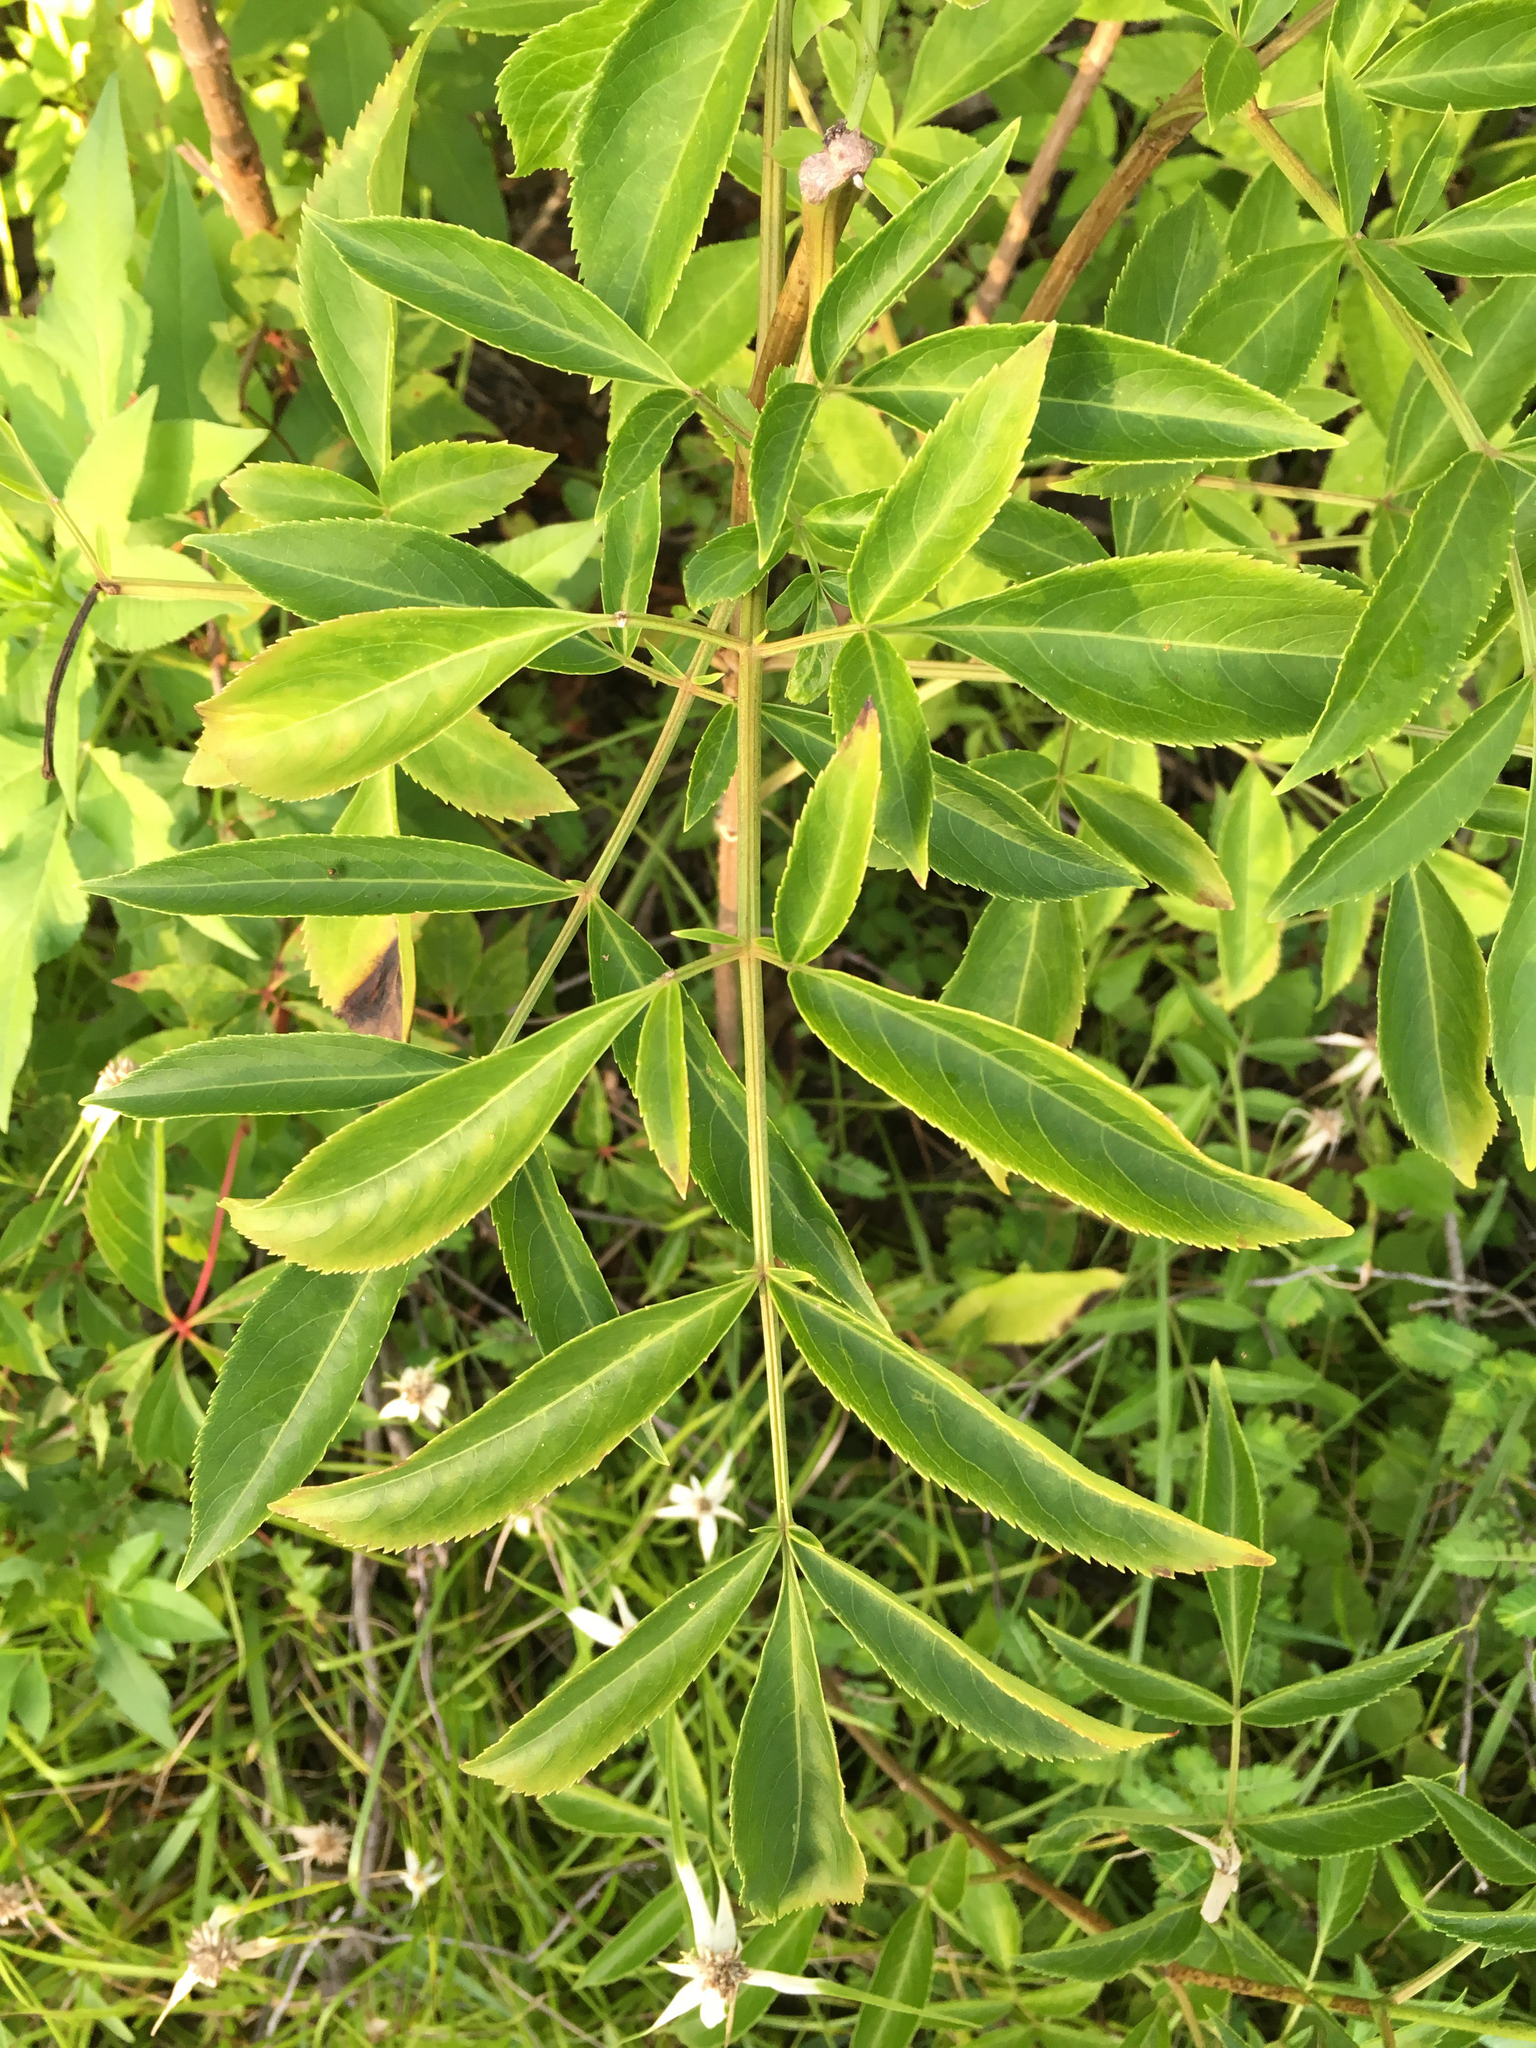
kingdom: Plantae
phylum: Tracheophyta
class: Magnoliopsida
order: Dipsacales
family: Viburnaceae
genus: Sambucus
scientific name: Sambucus canadensis
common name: American elder
